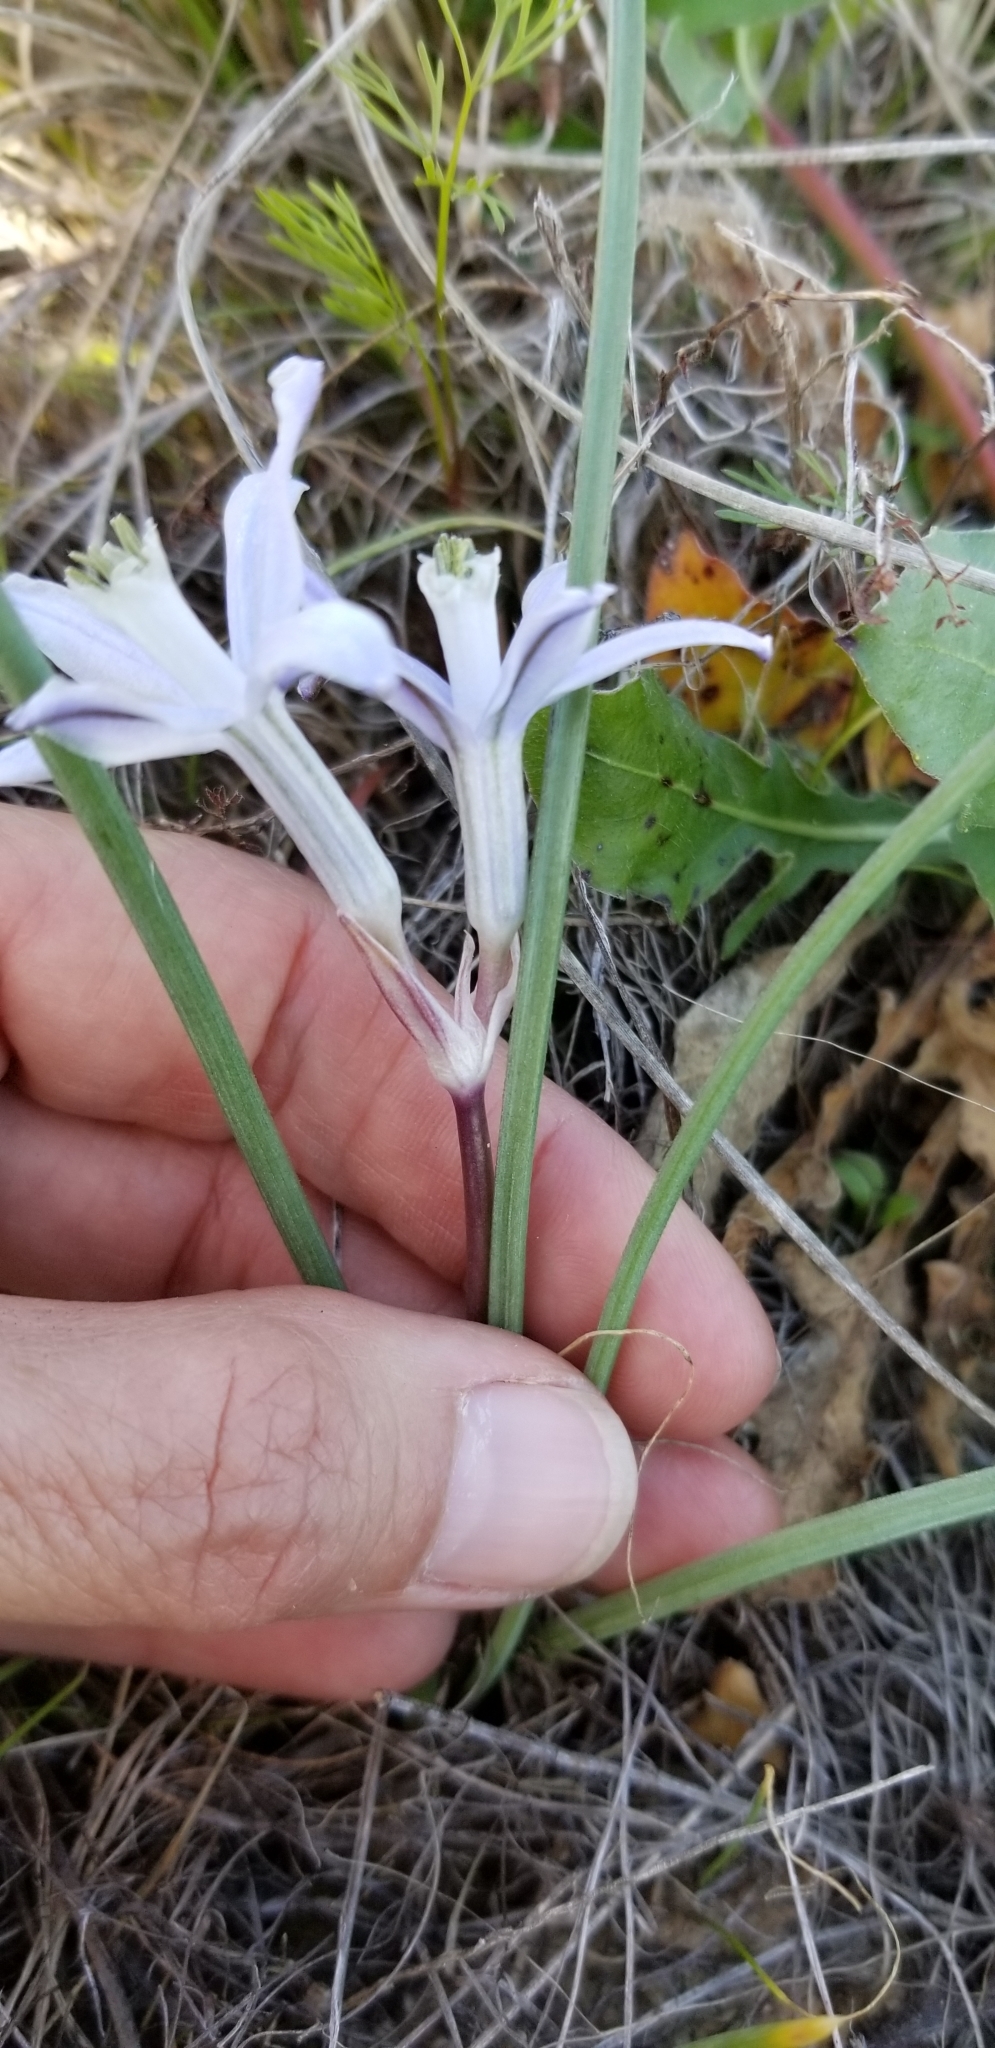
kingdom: Plantae
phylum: Tracheophyta
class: Liliopsida
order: Asparagales
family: Asparagaceae
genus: Androstephium
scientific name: Androstephium coeruleum
